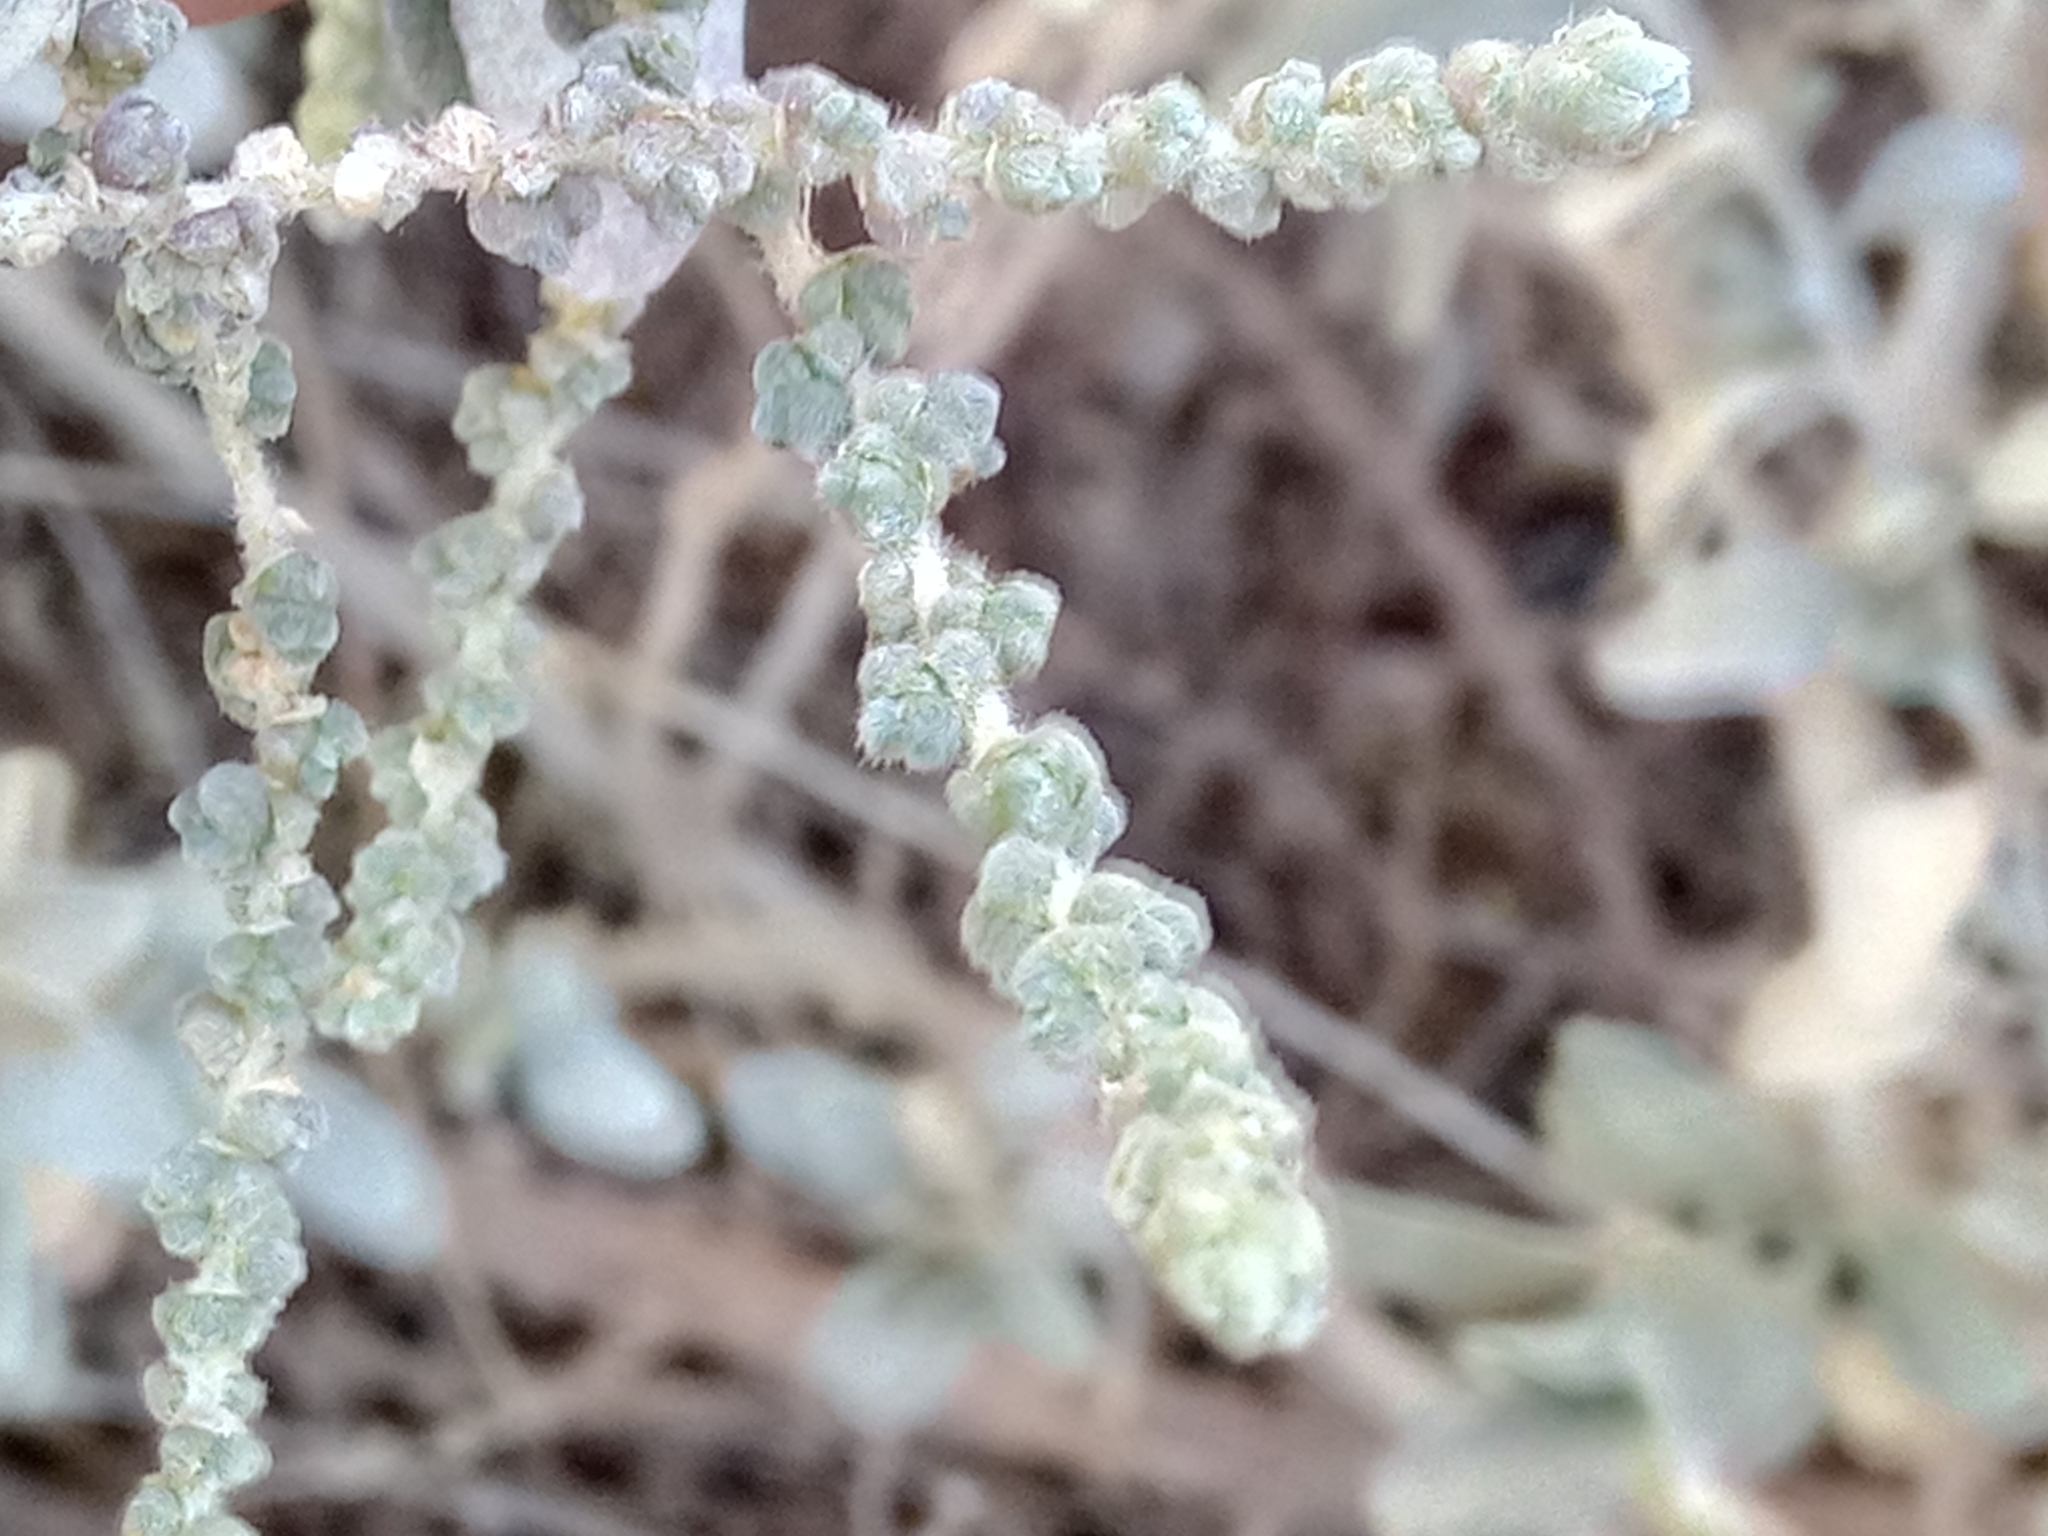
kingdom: Plantae
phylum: Tracheophyta
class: Magnoliopsida
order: Caryophyllales
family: Amaranthaceae
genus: Nitrosalsola
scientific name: Nitrosalsola gaetula
